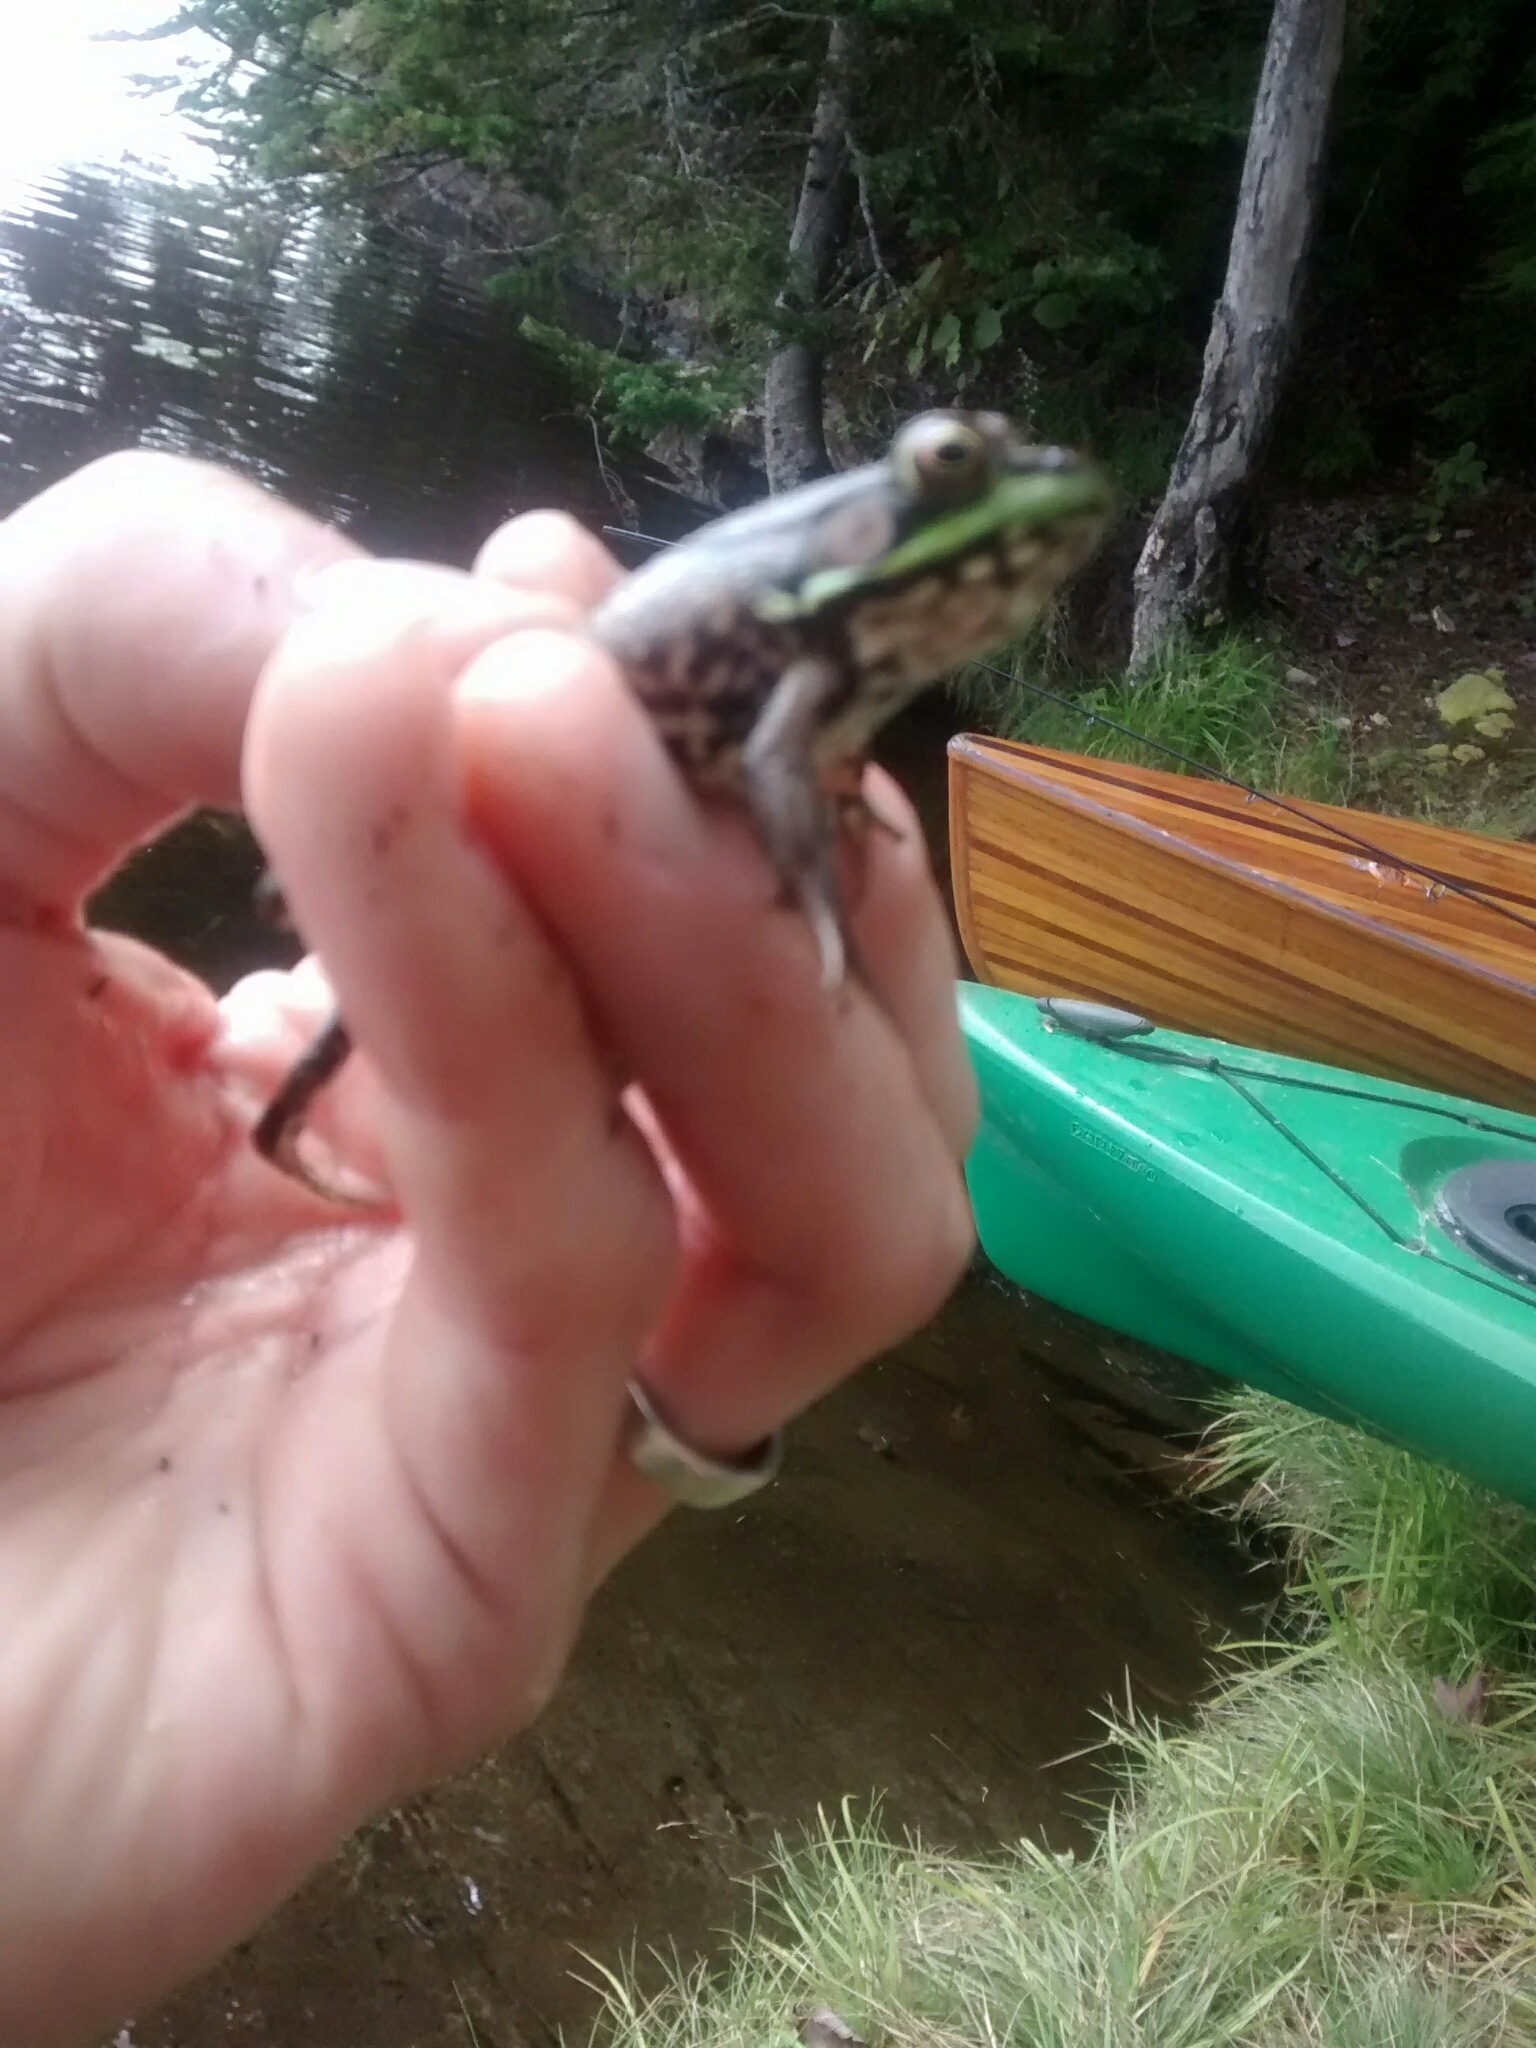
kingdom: Animalia
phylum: Chordata
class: Amphibia
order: Anura
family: Ranidae
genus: Lithobates
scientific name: Lithobates clamitans
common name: Green frog
